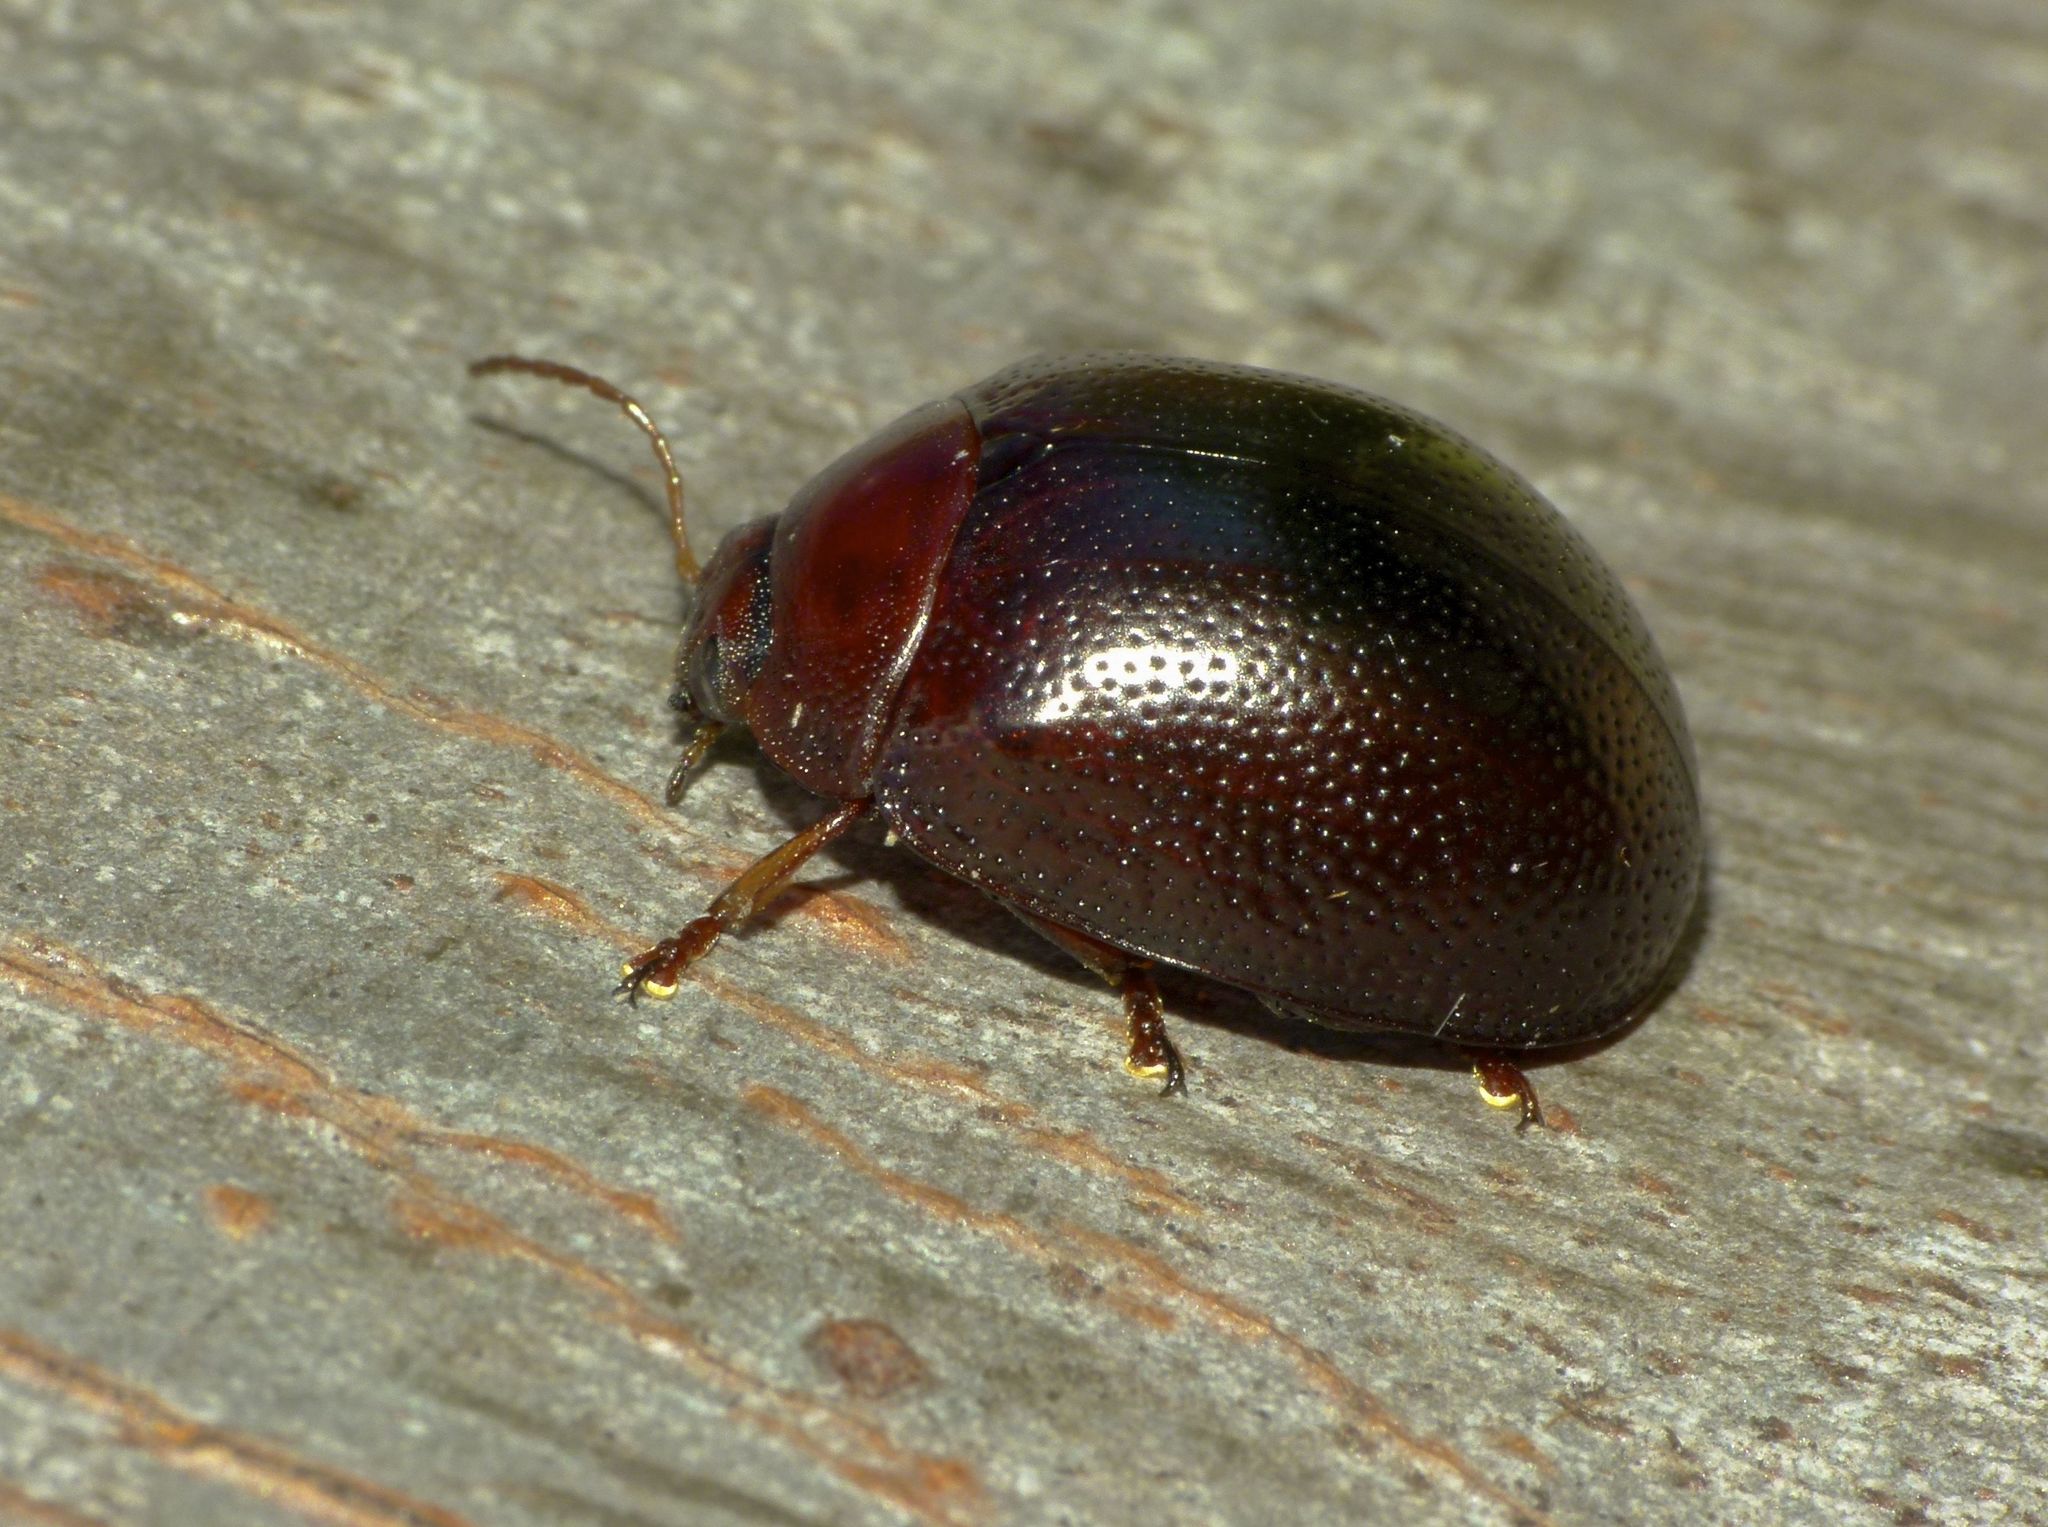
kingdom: Animalia
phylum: Arthropoda
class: Insecta
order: Coleoptera
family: Chrysomelidae
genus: Dicranosterna
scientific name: Dicranosterna
